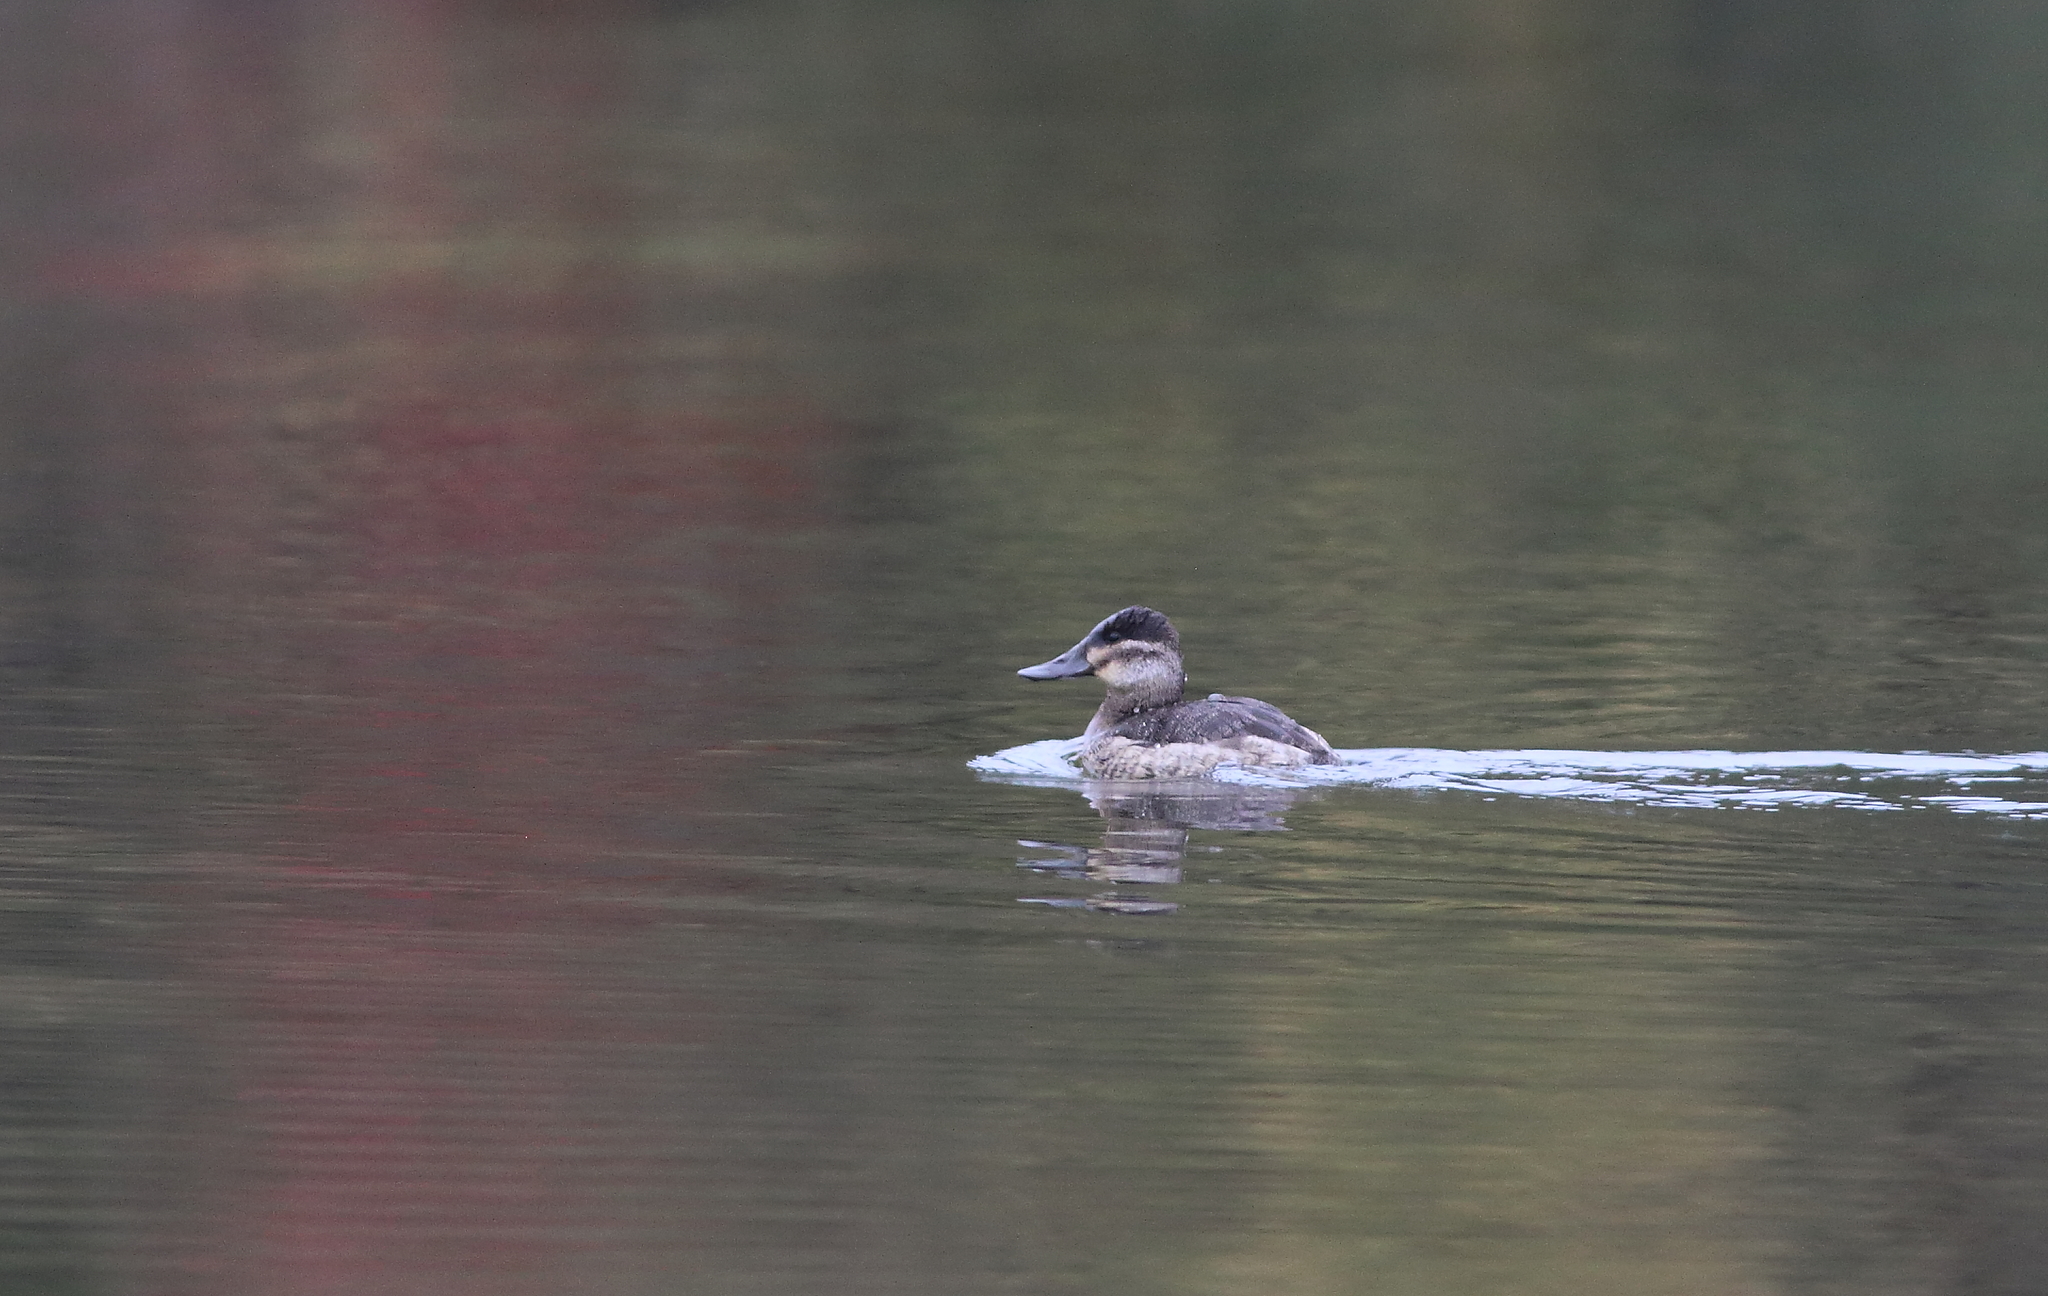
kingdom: Animalia
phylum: Chordata
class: Aves
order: Anseriformes
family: Anatidae
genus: Oxyura
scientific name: Oxyura jamaicensis
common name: Ruddy duck
